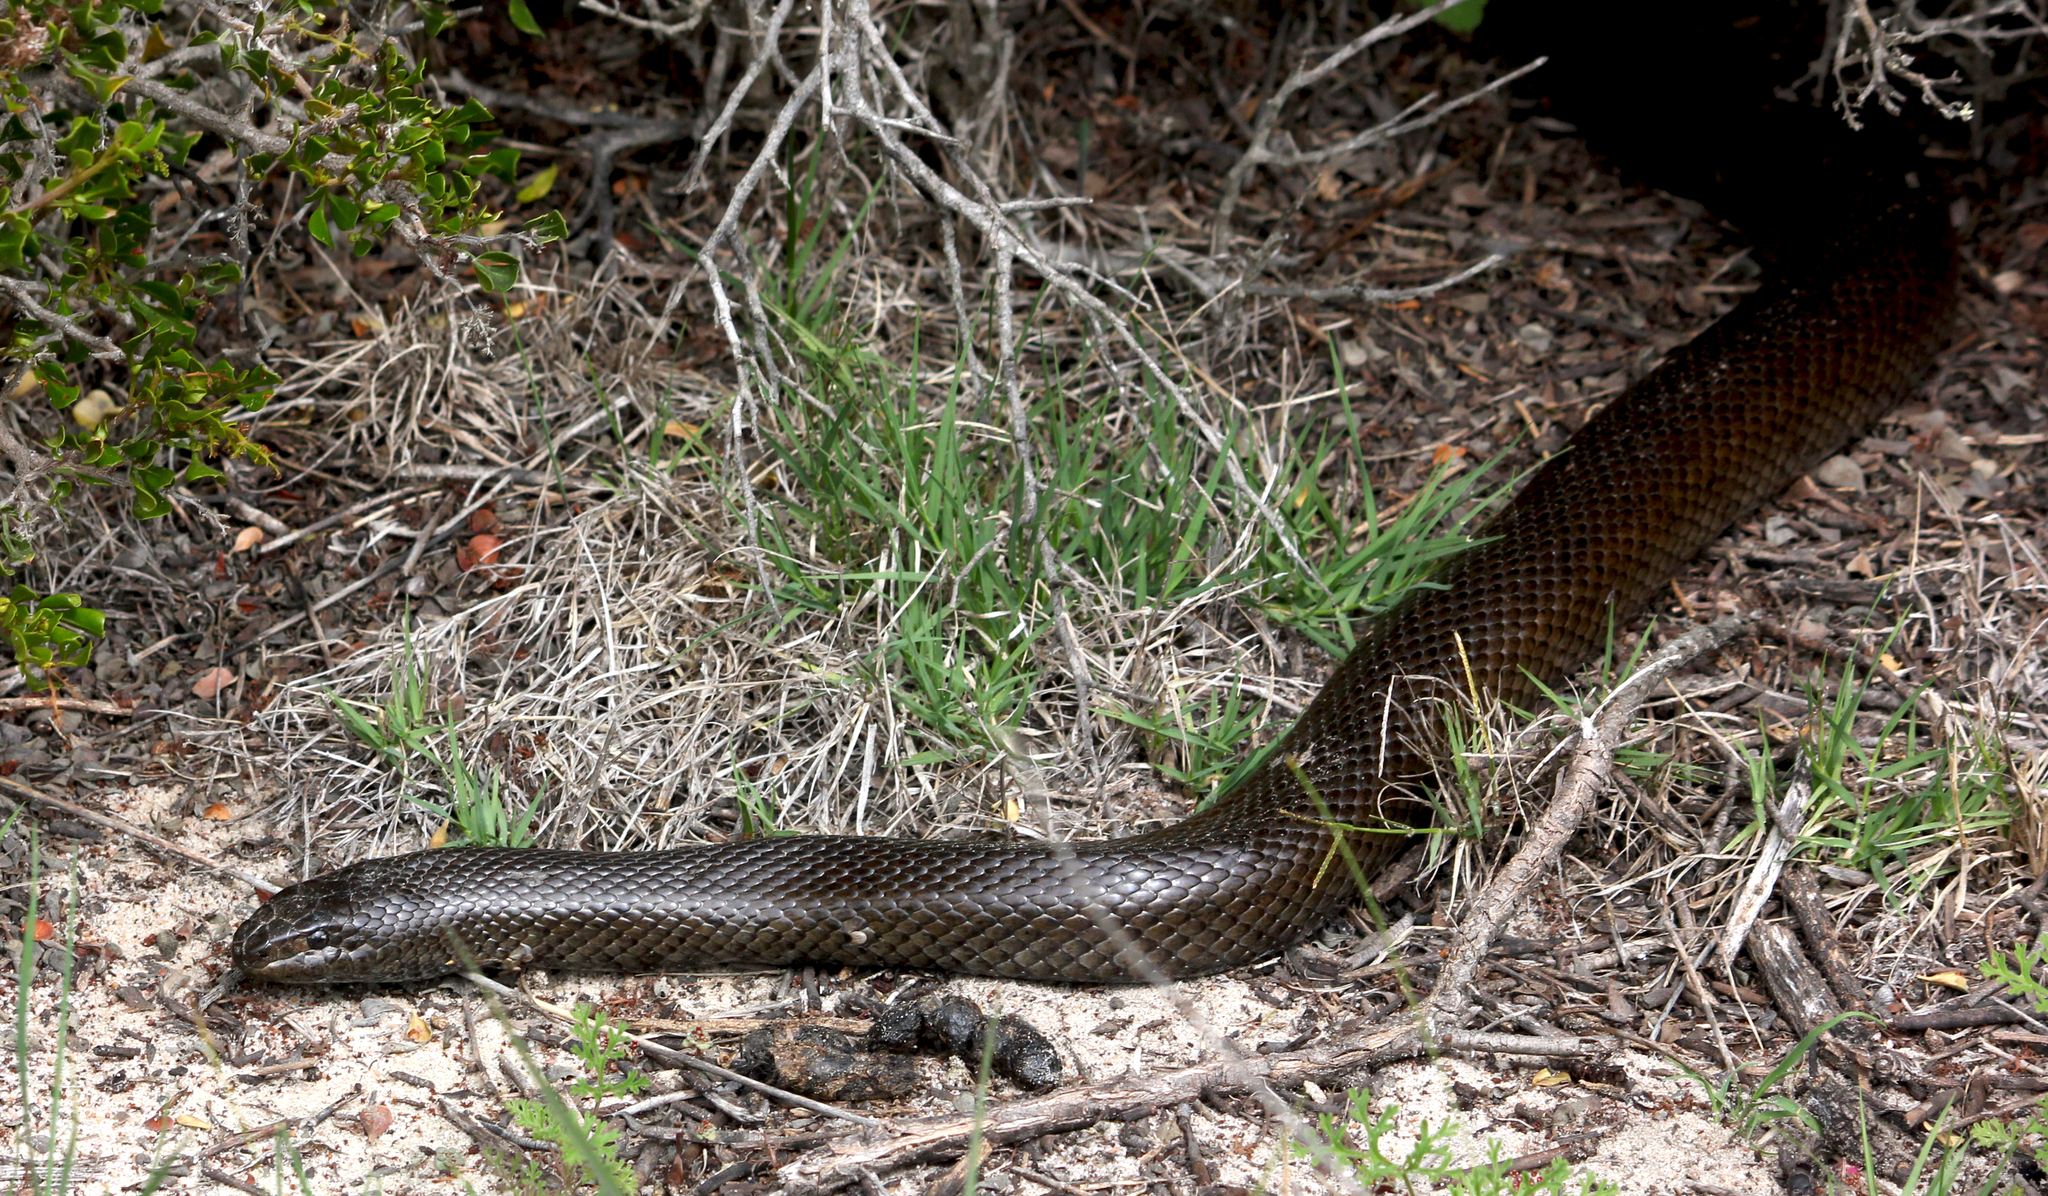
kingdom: Animalia
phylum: Chordata
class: Squamata
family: Pseudaspididae
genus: Pseudaspis
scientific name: Pseudaspis cana
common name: Mole snake
